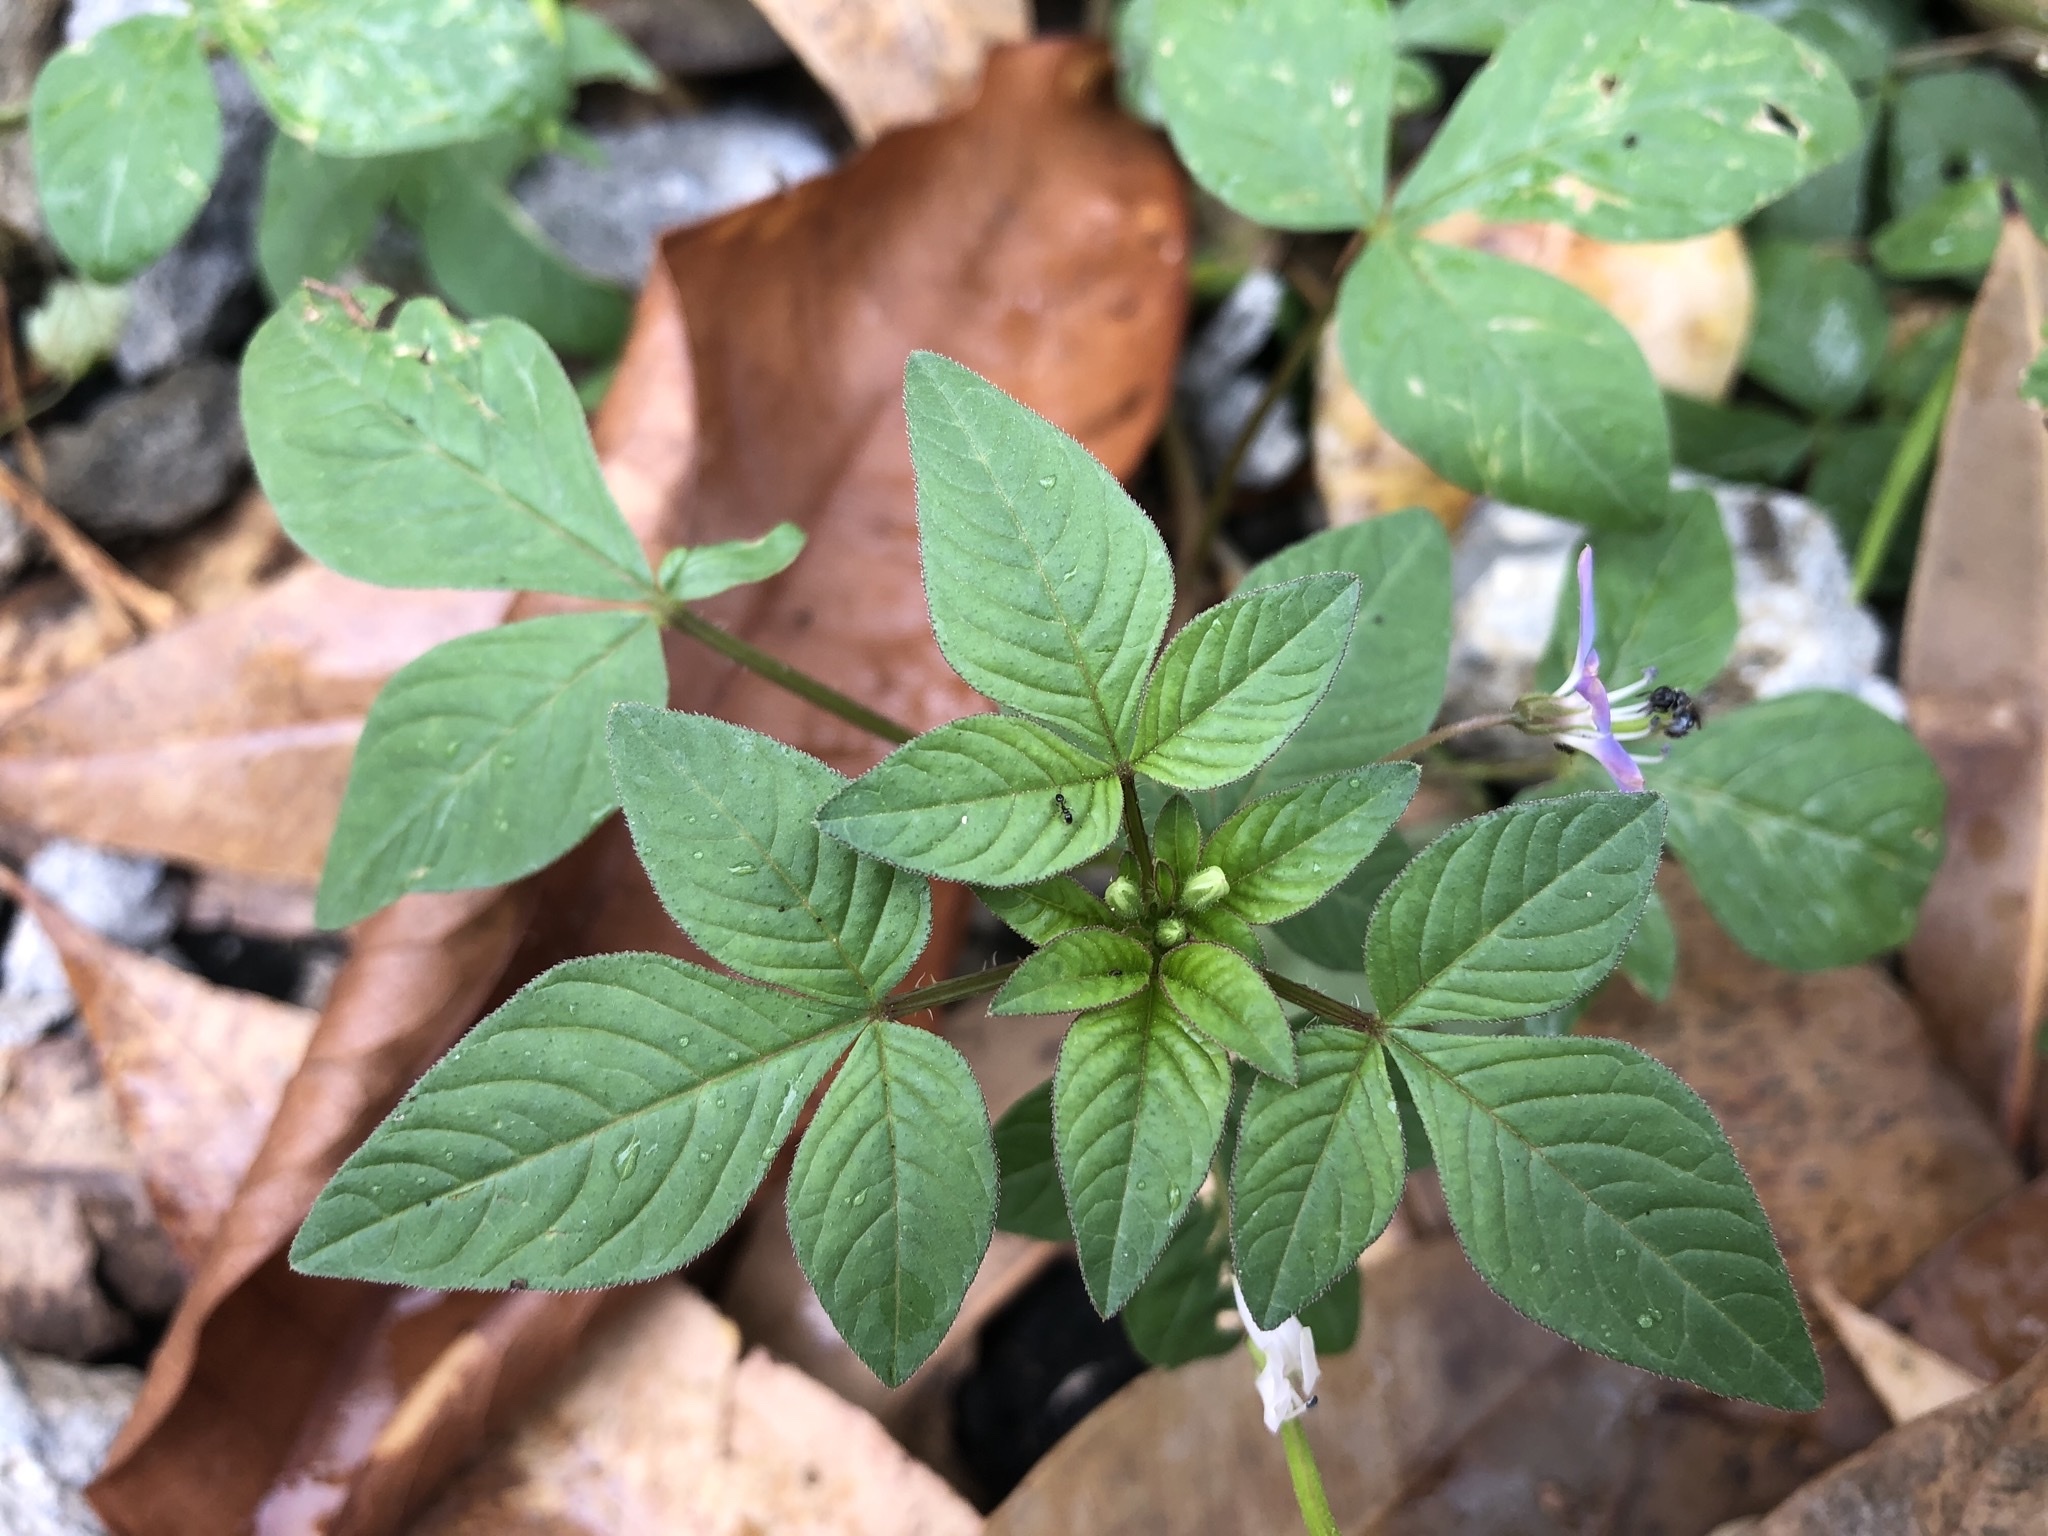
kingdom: Plantae
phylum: Tracheophyta
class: Magnoliopsida
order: Brassicales
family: Cleomaceae
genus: Sieruela
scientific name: Sieruela rutidosperma
